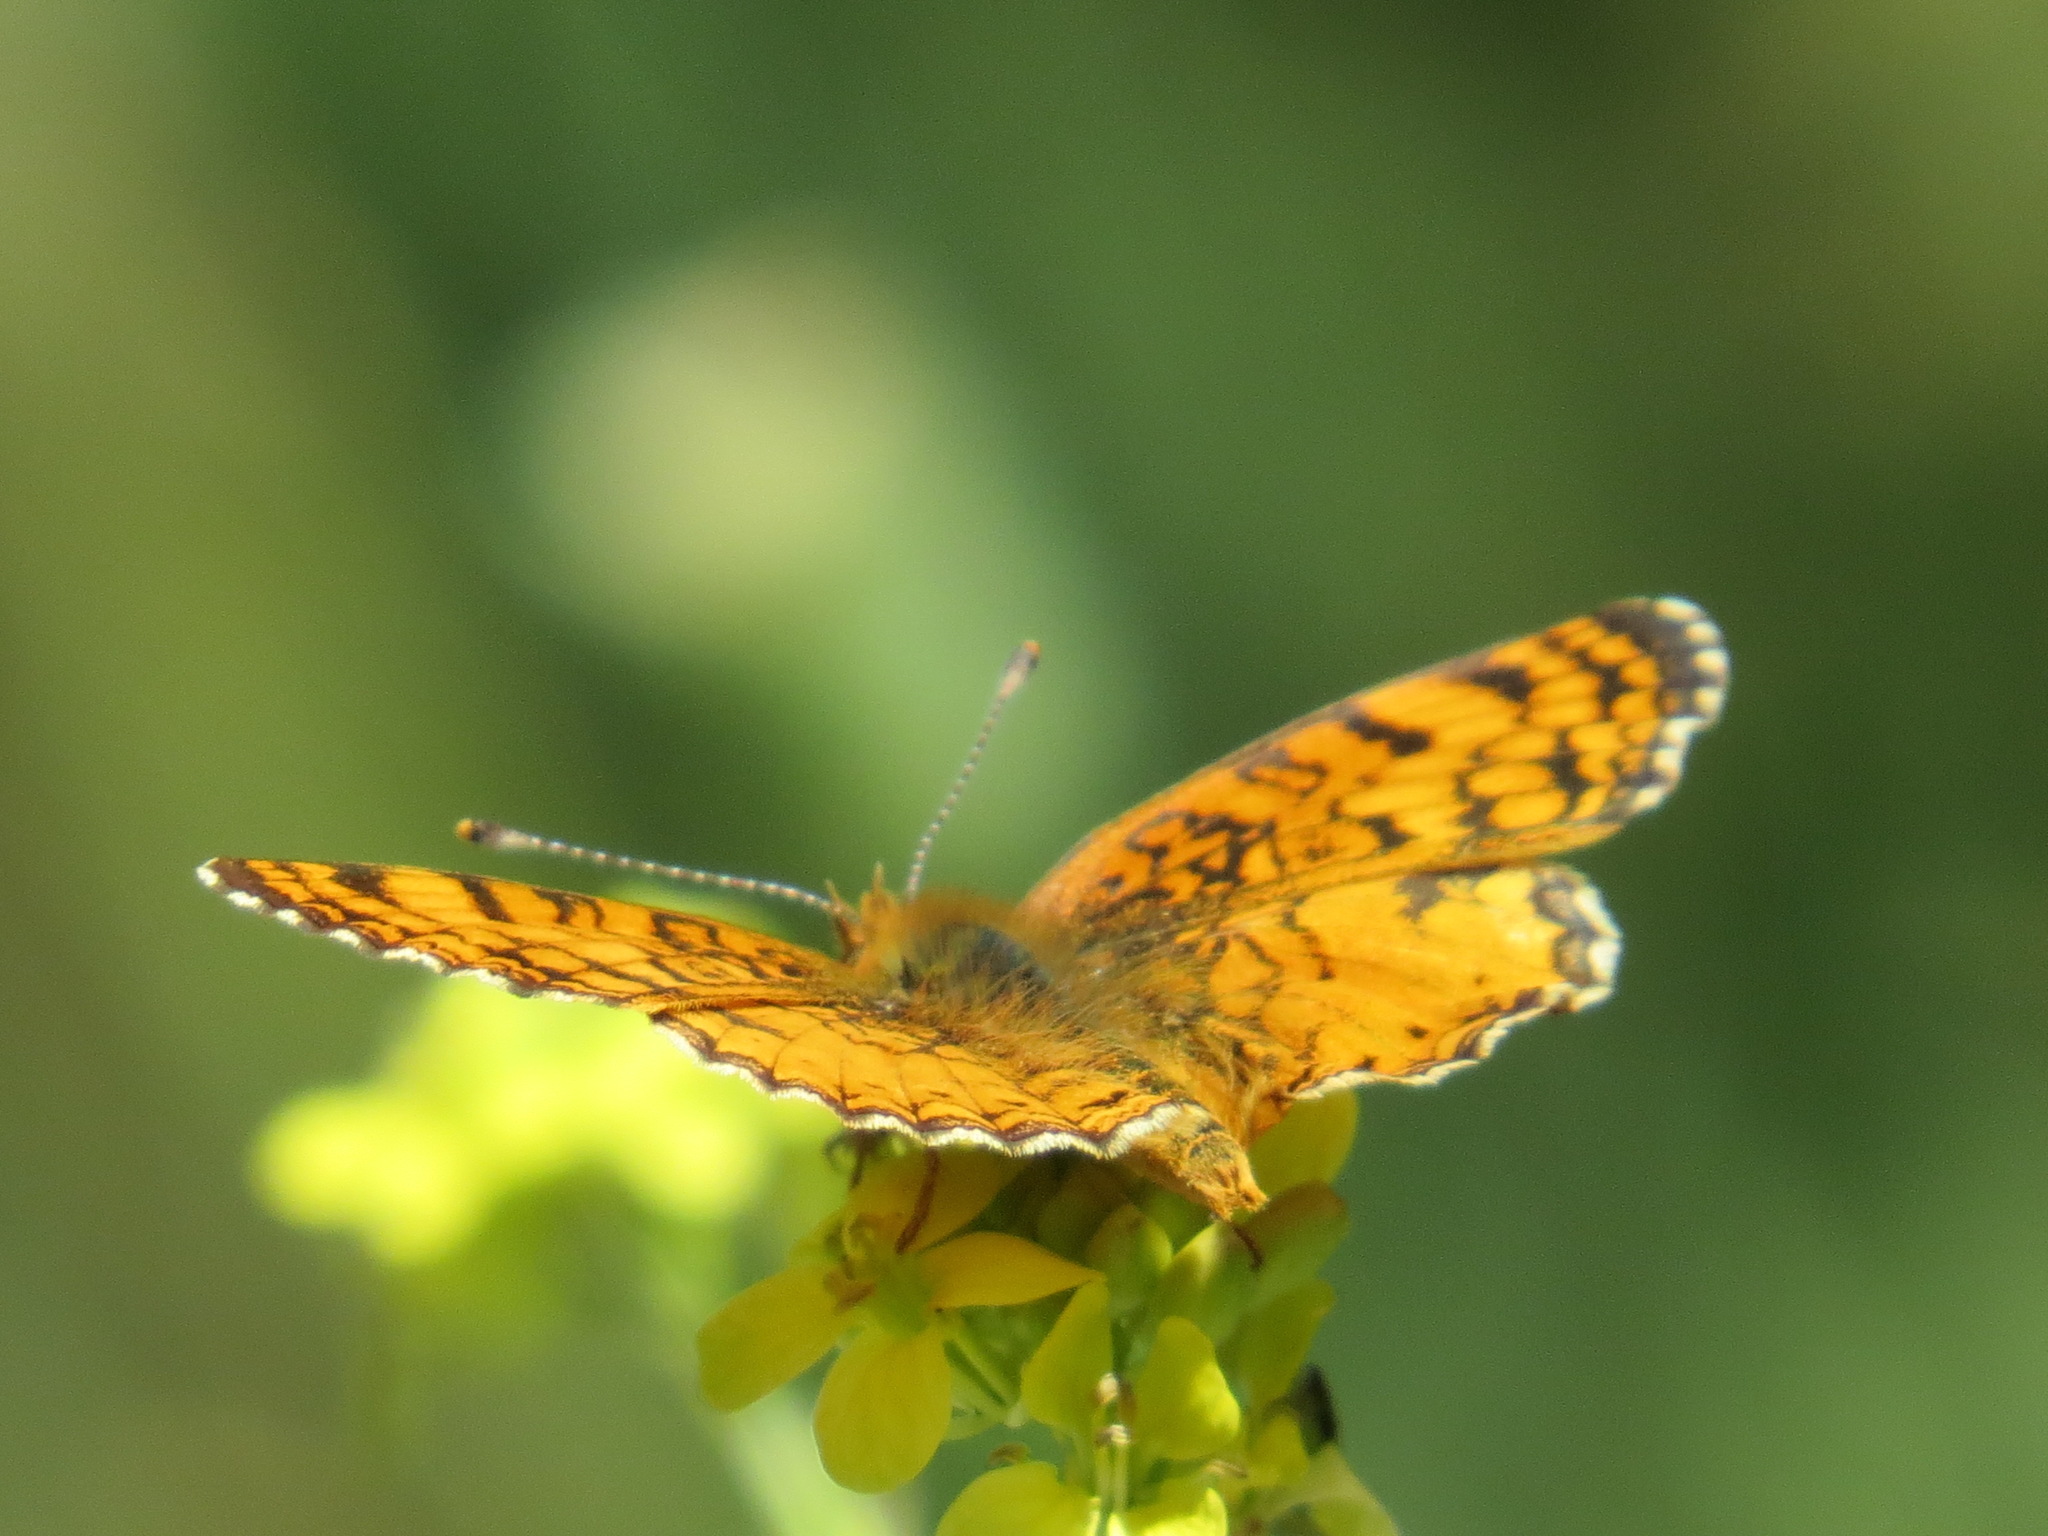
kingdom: Animalia
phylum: Arthropoda
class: Insecta
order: Lepidoptera
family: Nymphalidae
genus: Eresia
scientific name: Eresia aveyrona
